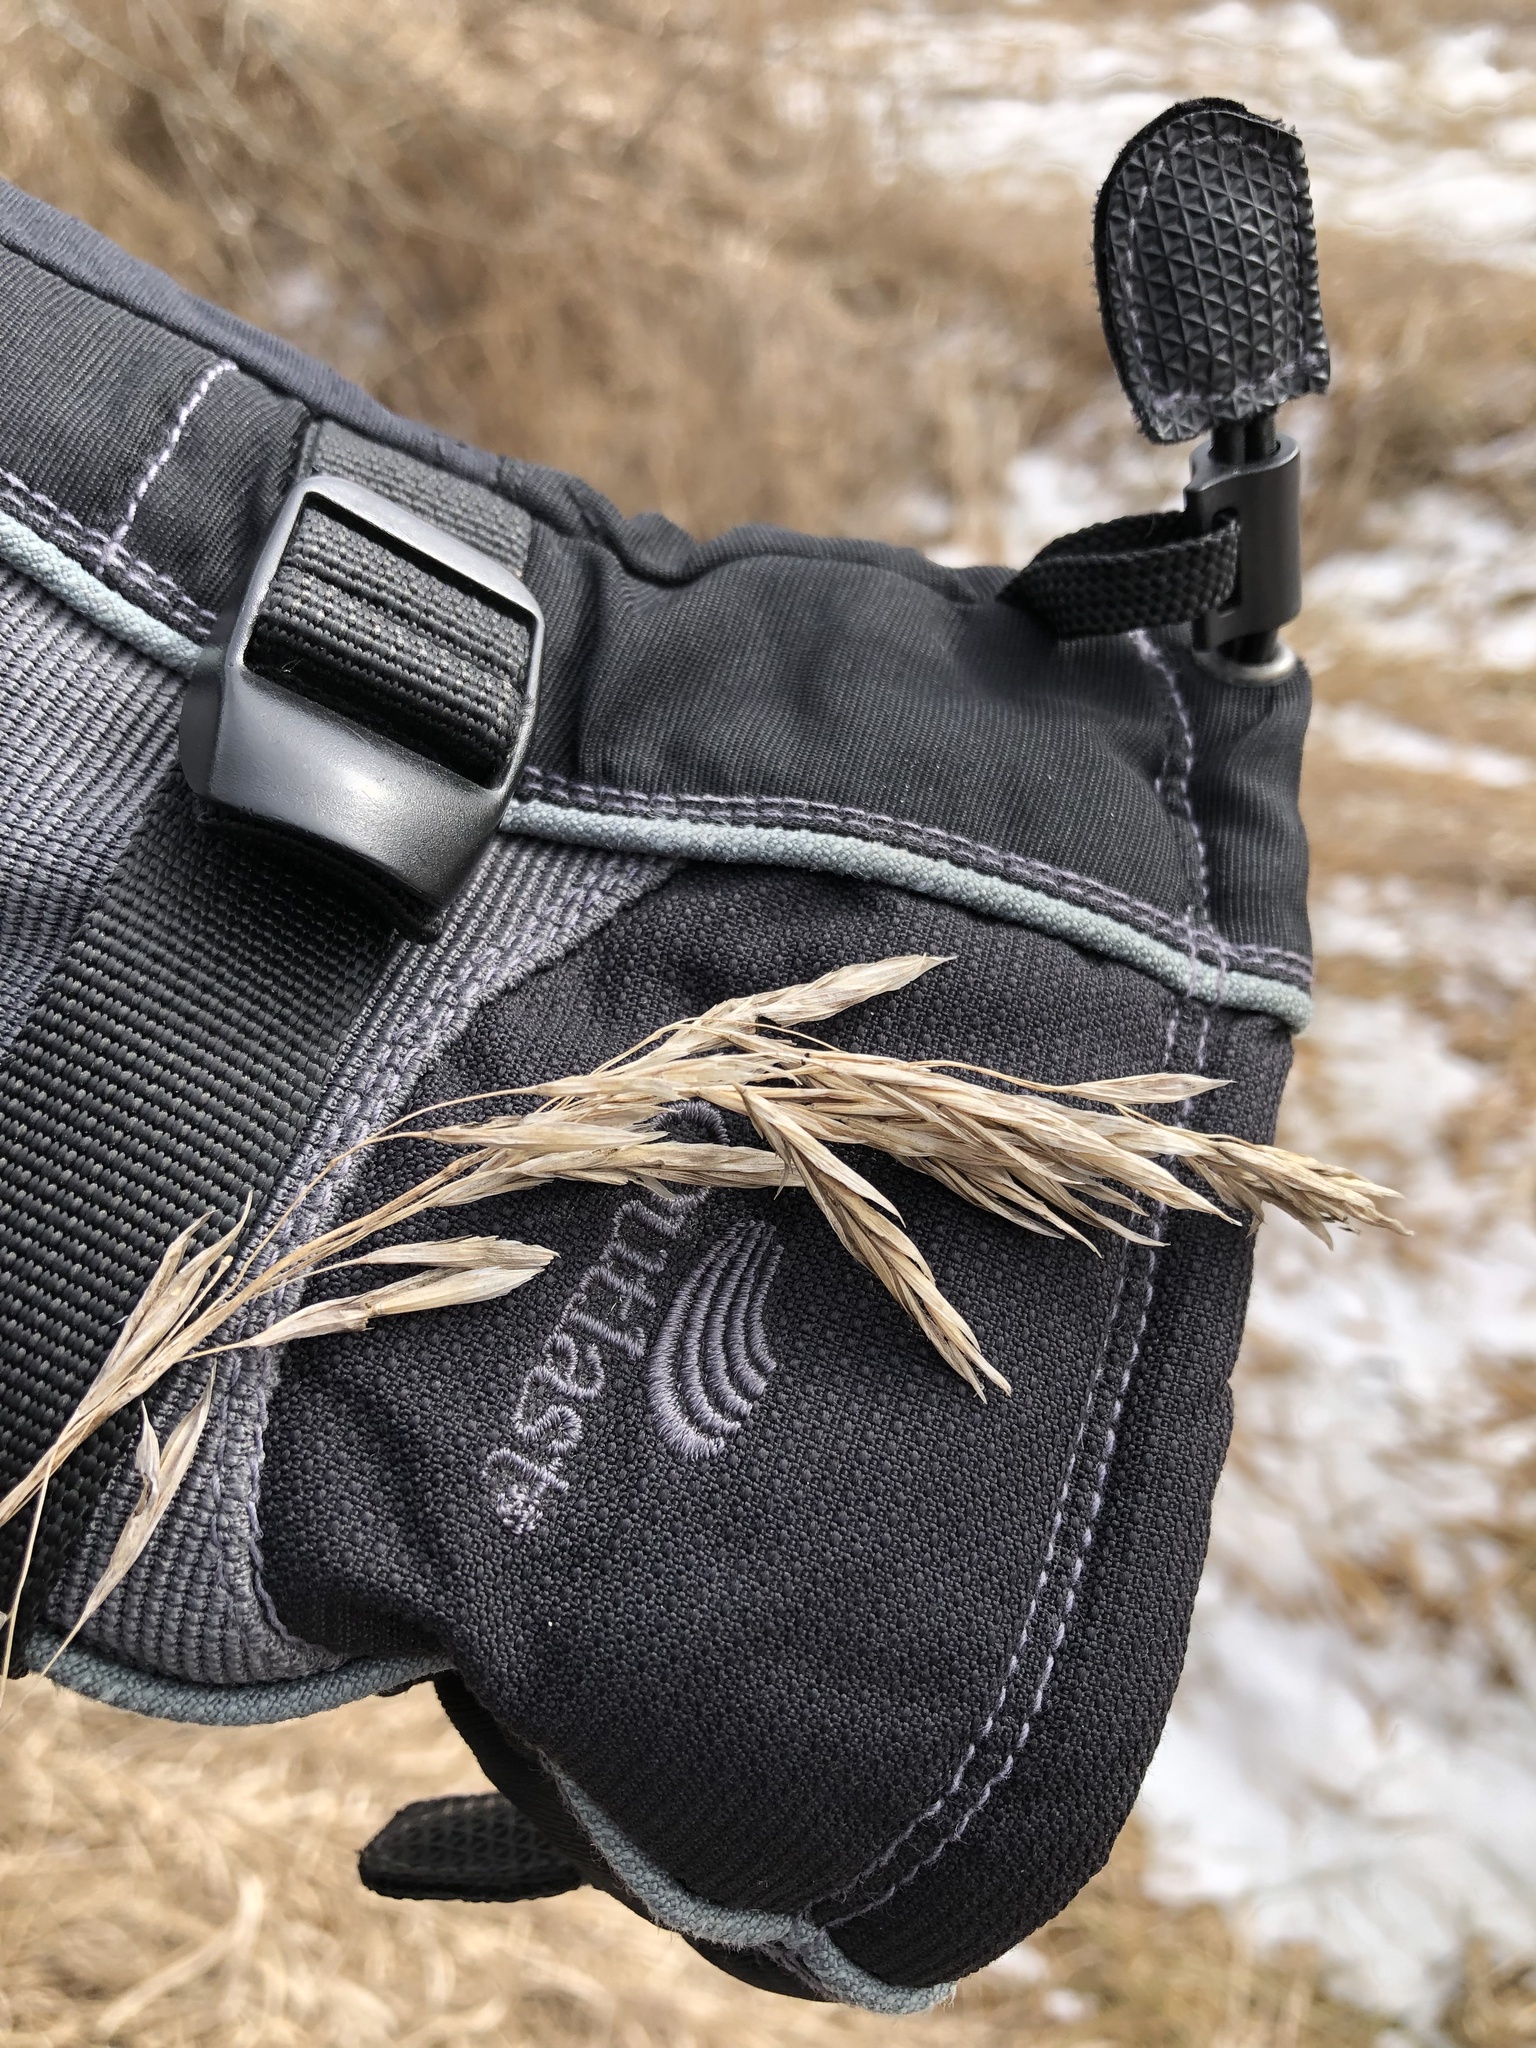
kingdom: Plantae
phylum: Tracheophyta
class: Liliopsida
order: Poales
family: Poaceae
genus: Bromus
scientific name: Bromus inermis
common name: Smooth brome
